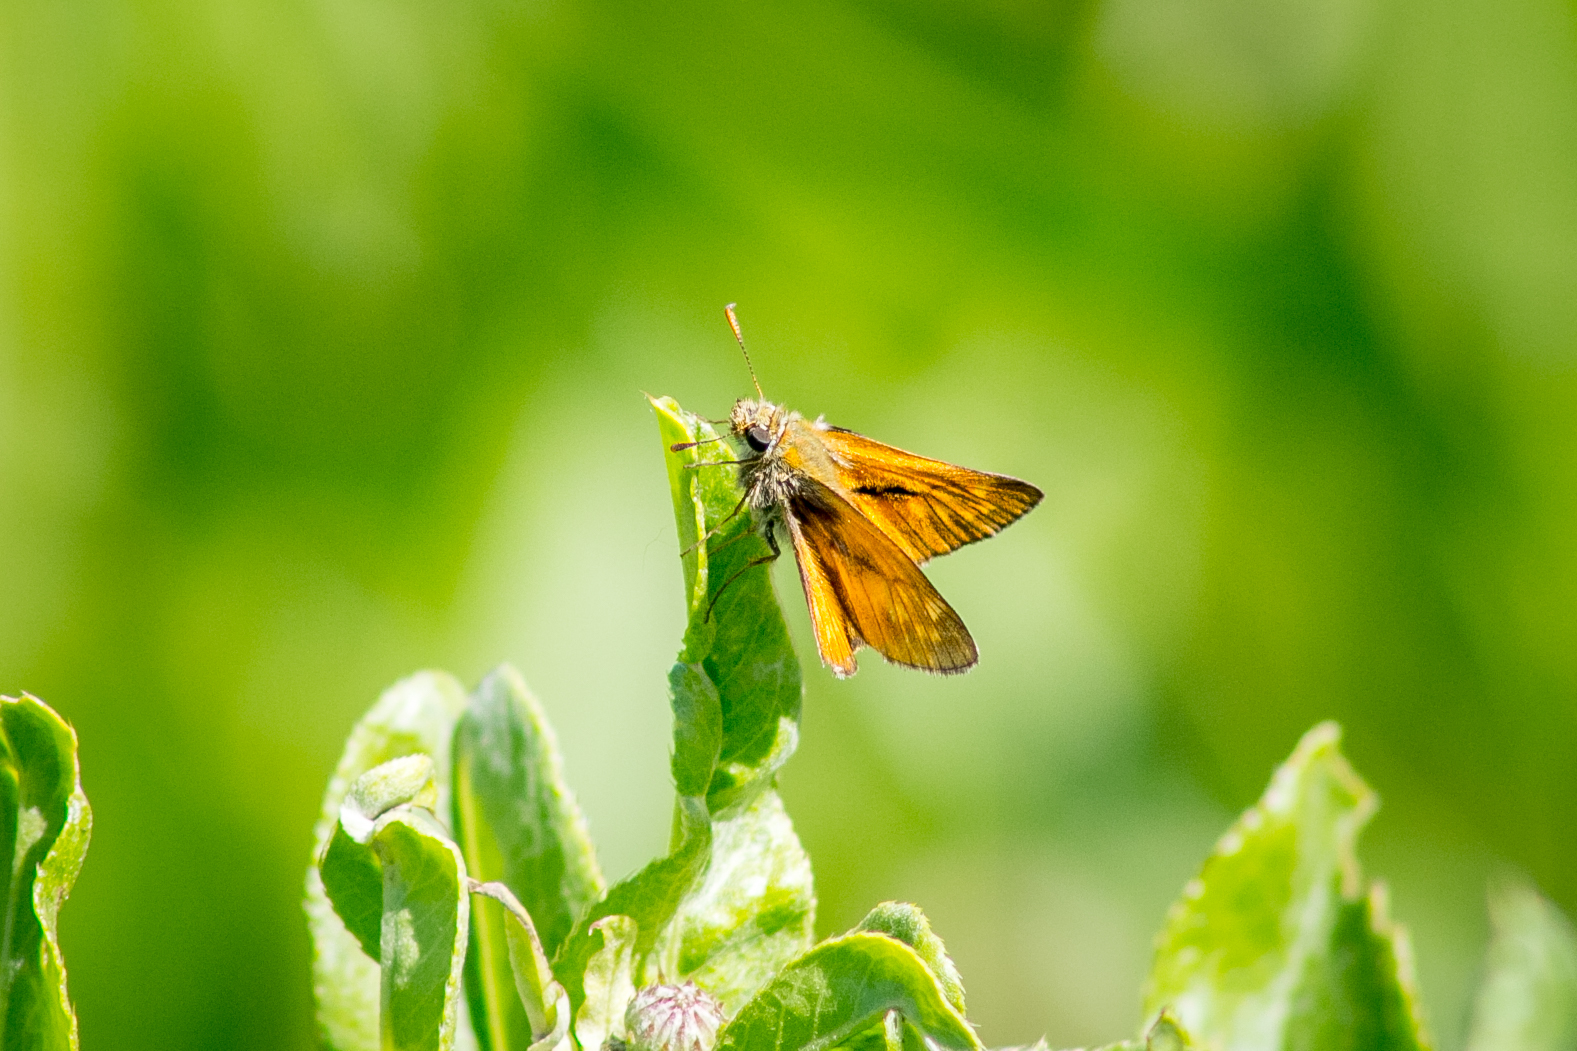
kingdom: Animalia
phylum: Arthropoda
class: Insecta
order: Lepidoptera
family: Hesperiidae
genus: Ochlodes
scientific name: Ochlodes venata
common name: Large skipper
